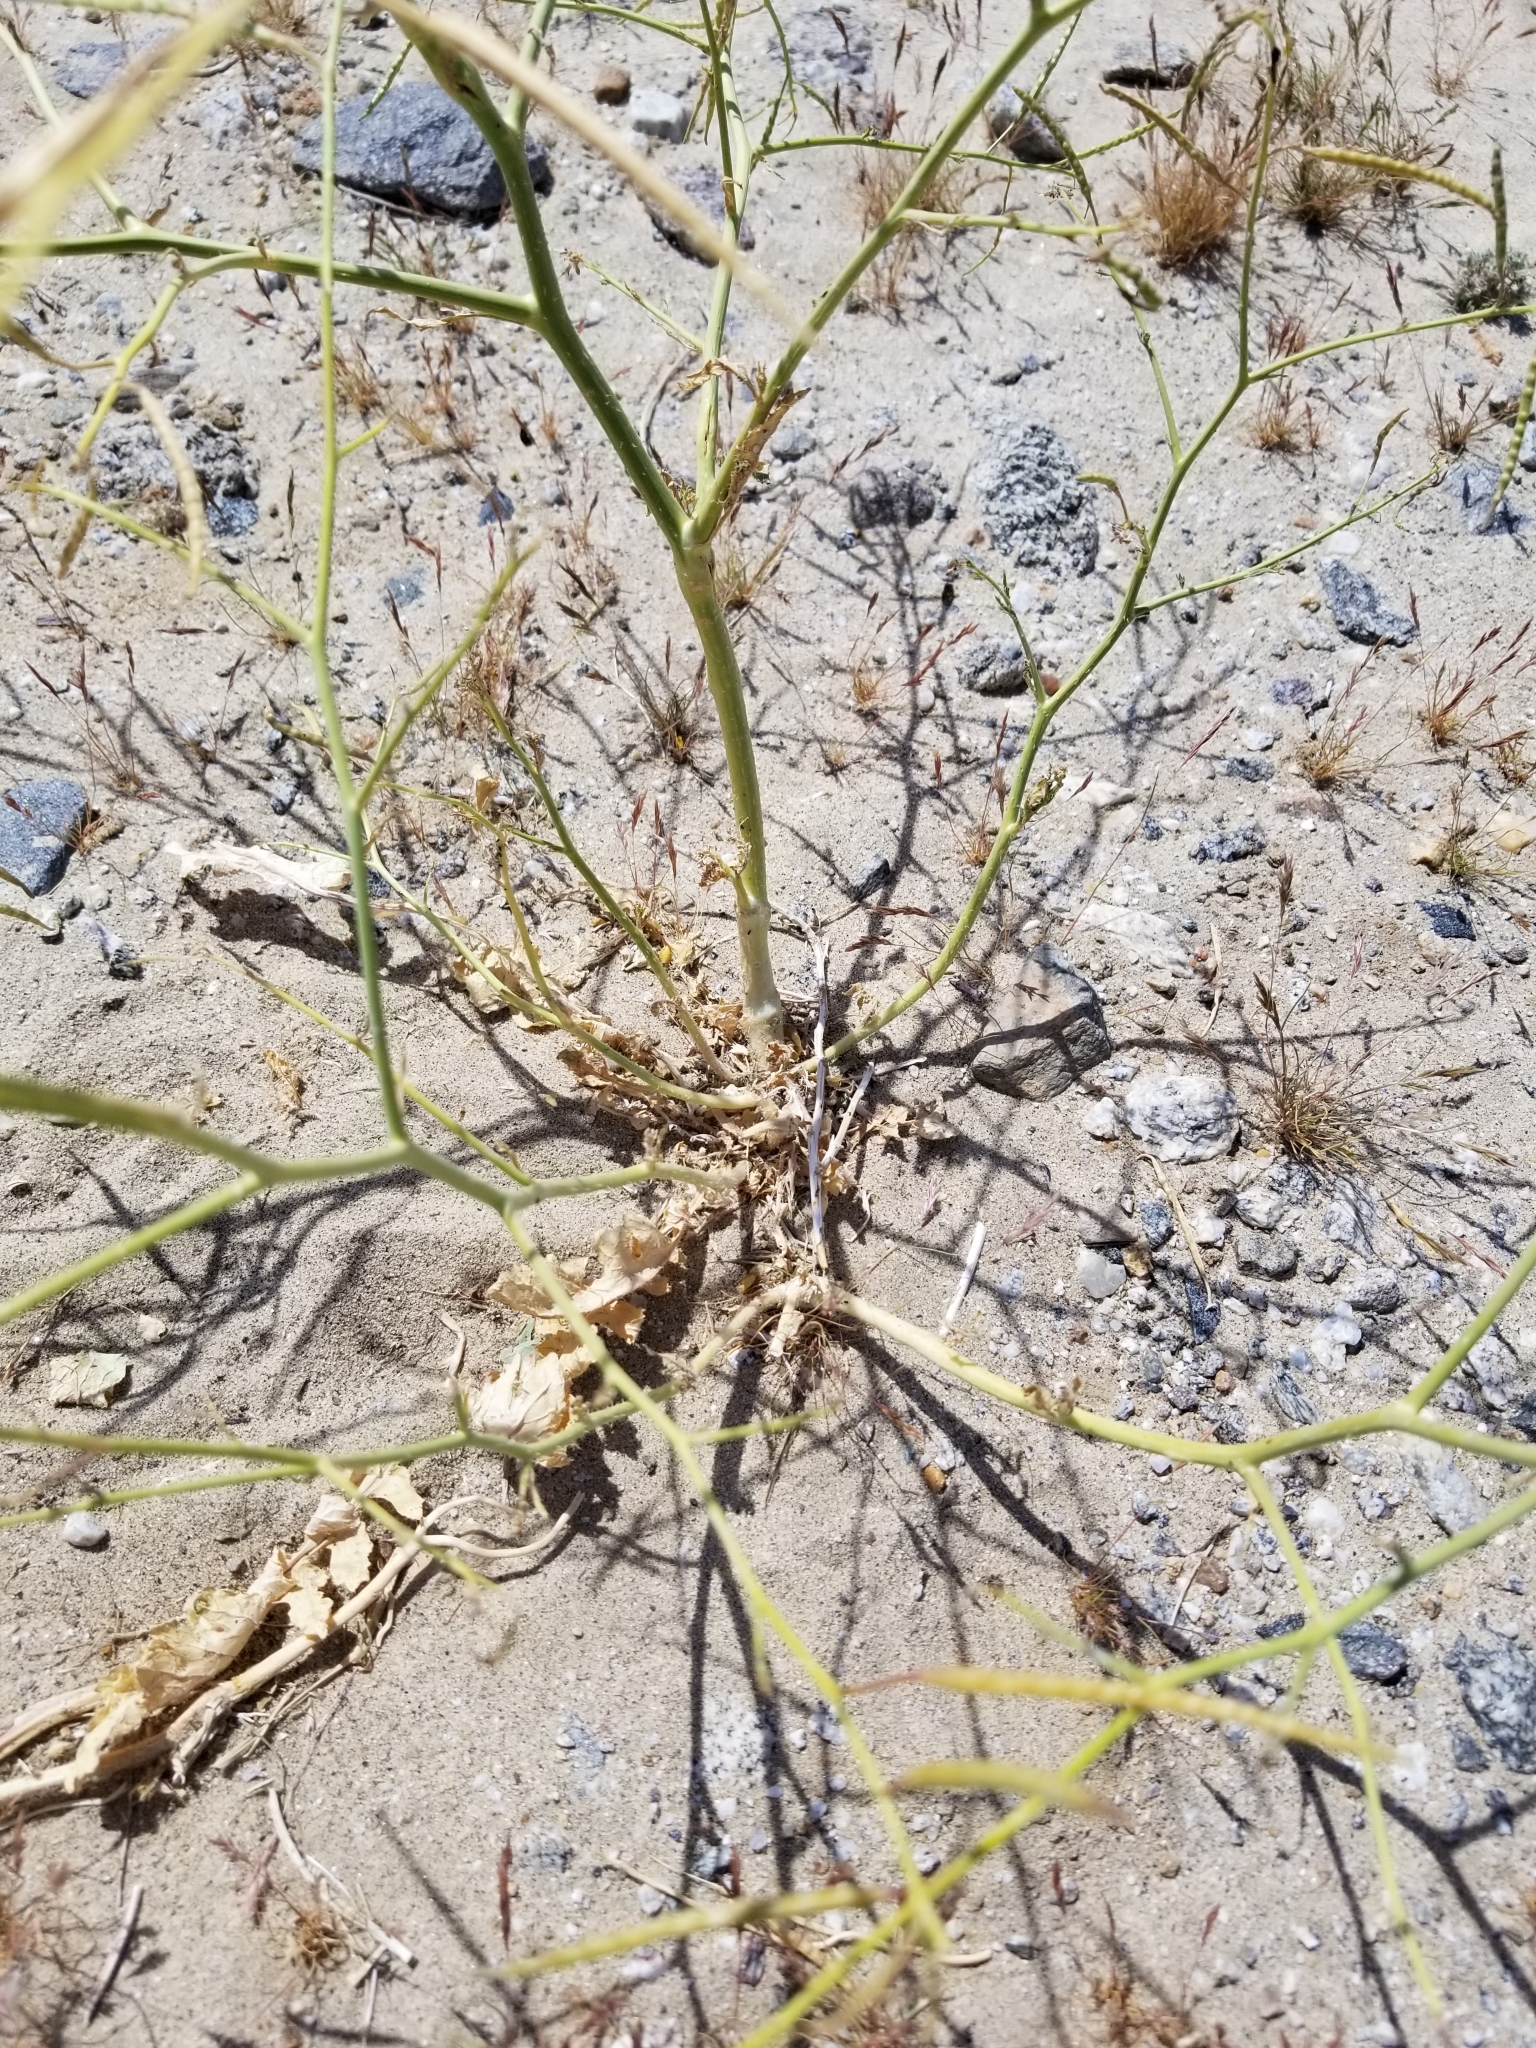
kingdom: Plantae
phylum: Tracheophyta
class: Magnoliopsida
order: Brassicales
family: Brassicaceae
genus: Brassica
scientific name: Brassica tournefortii
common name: Pale cabbage
